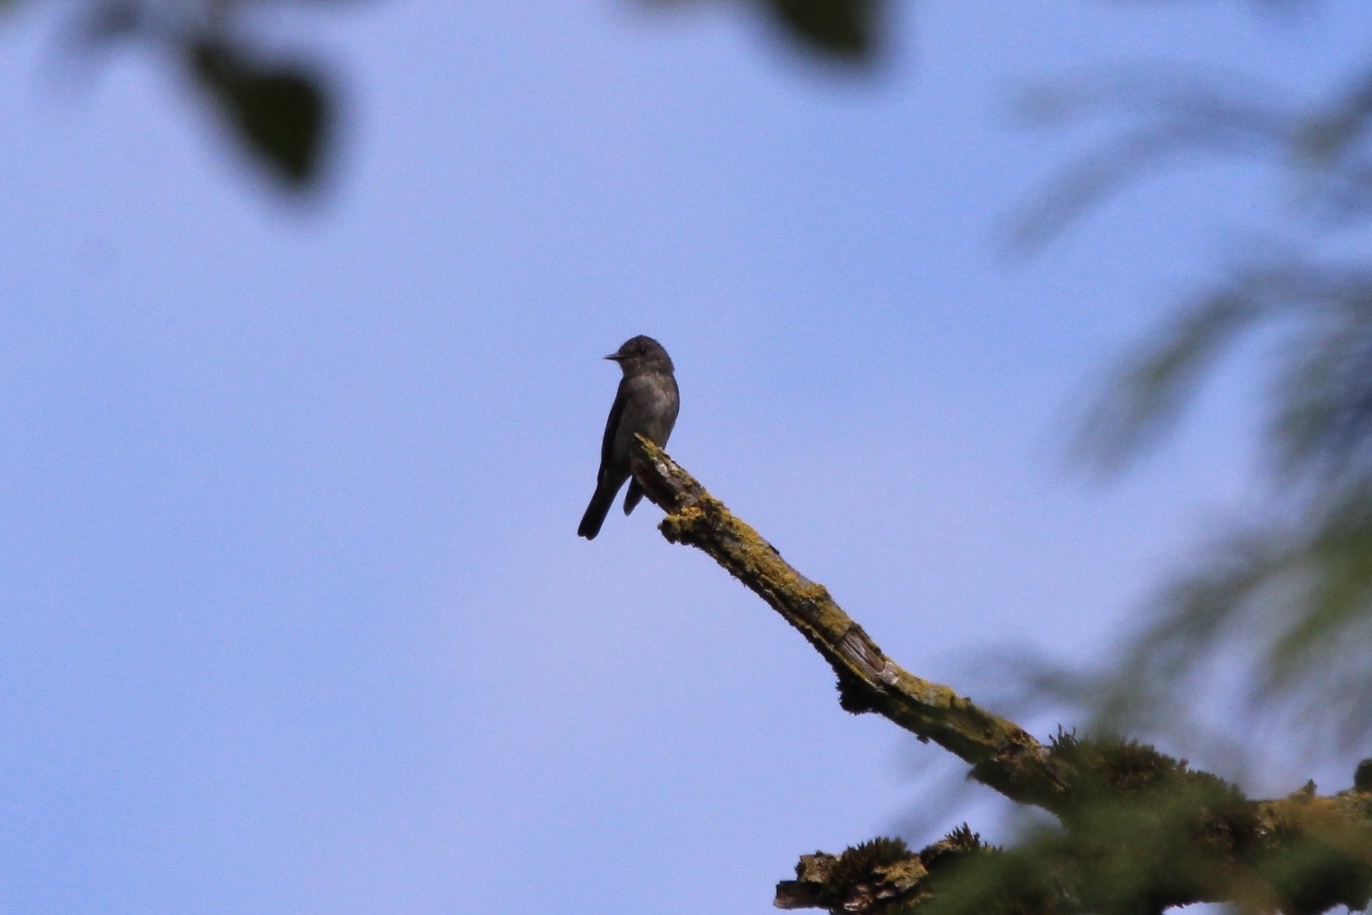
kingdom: Animalia
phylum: Chordata
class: Aves
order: Passeriformes
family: Tyrannidae
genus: Contopus
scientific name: Contopus sordidulus
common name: Western wood-pewee
